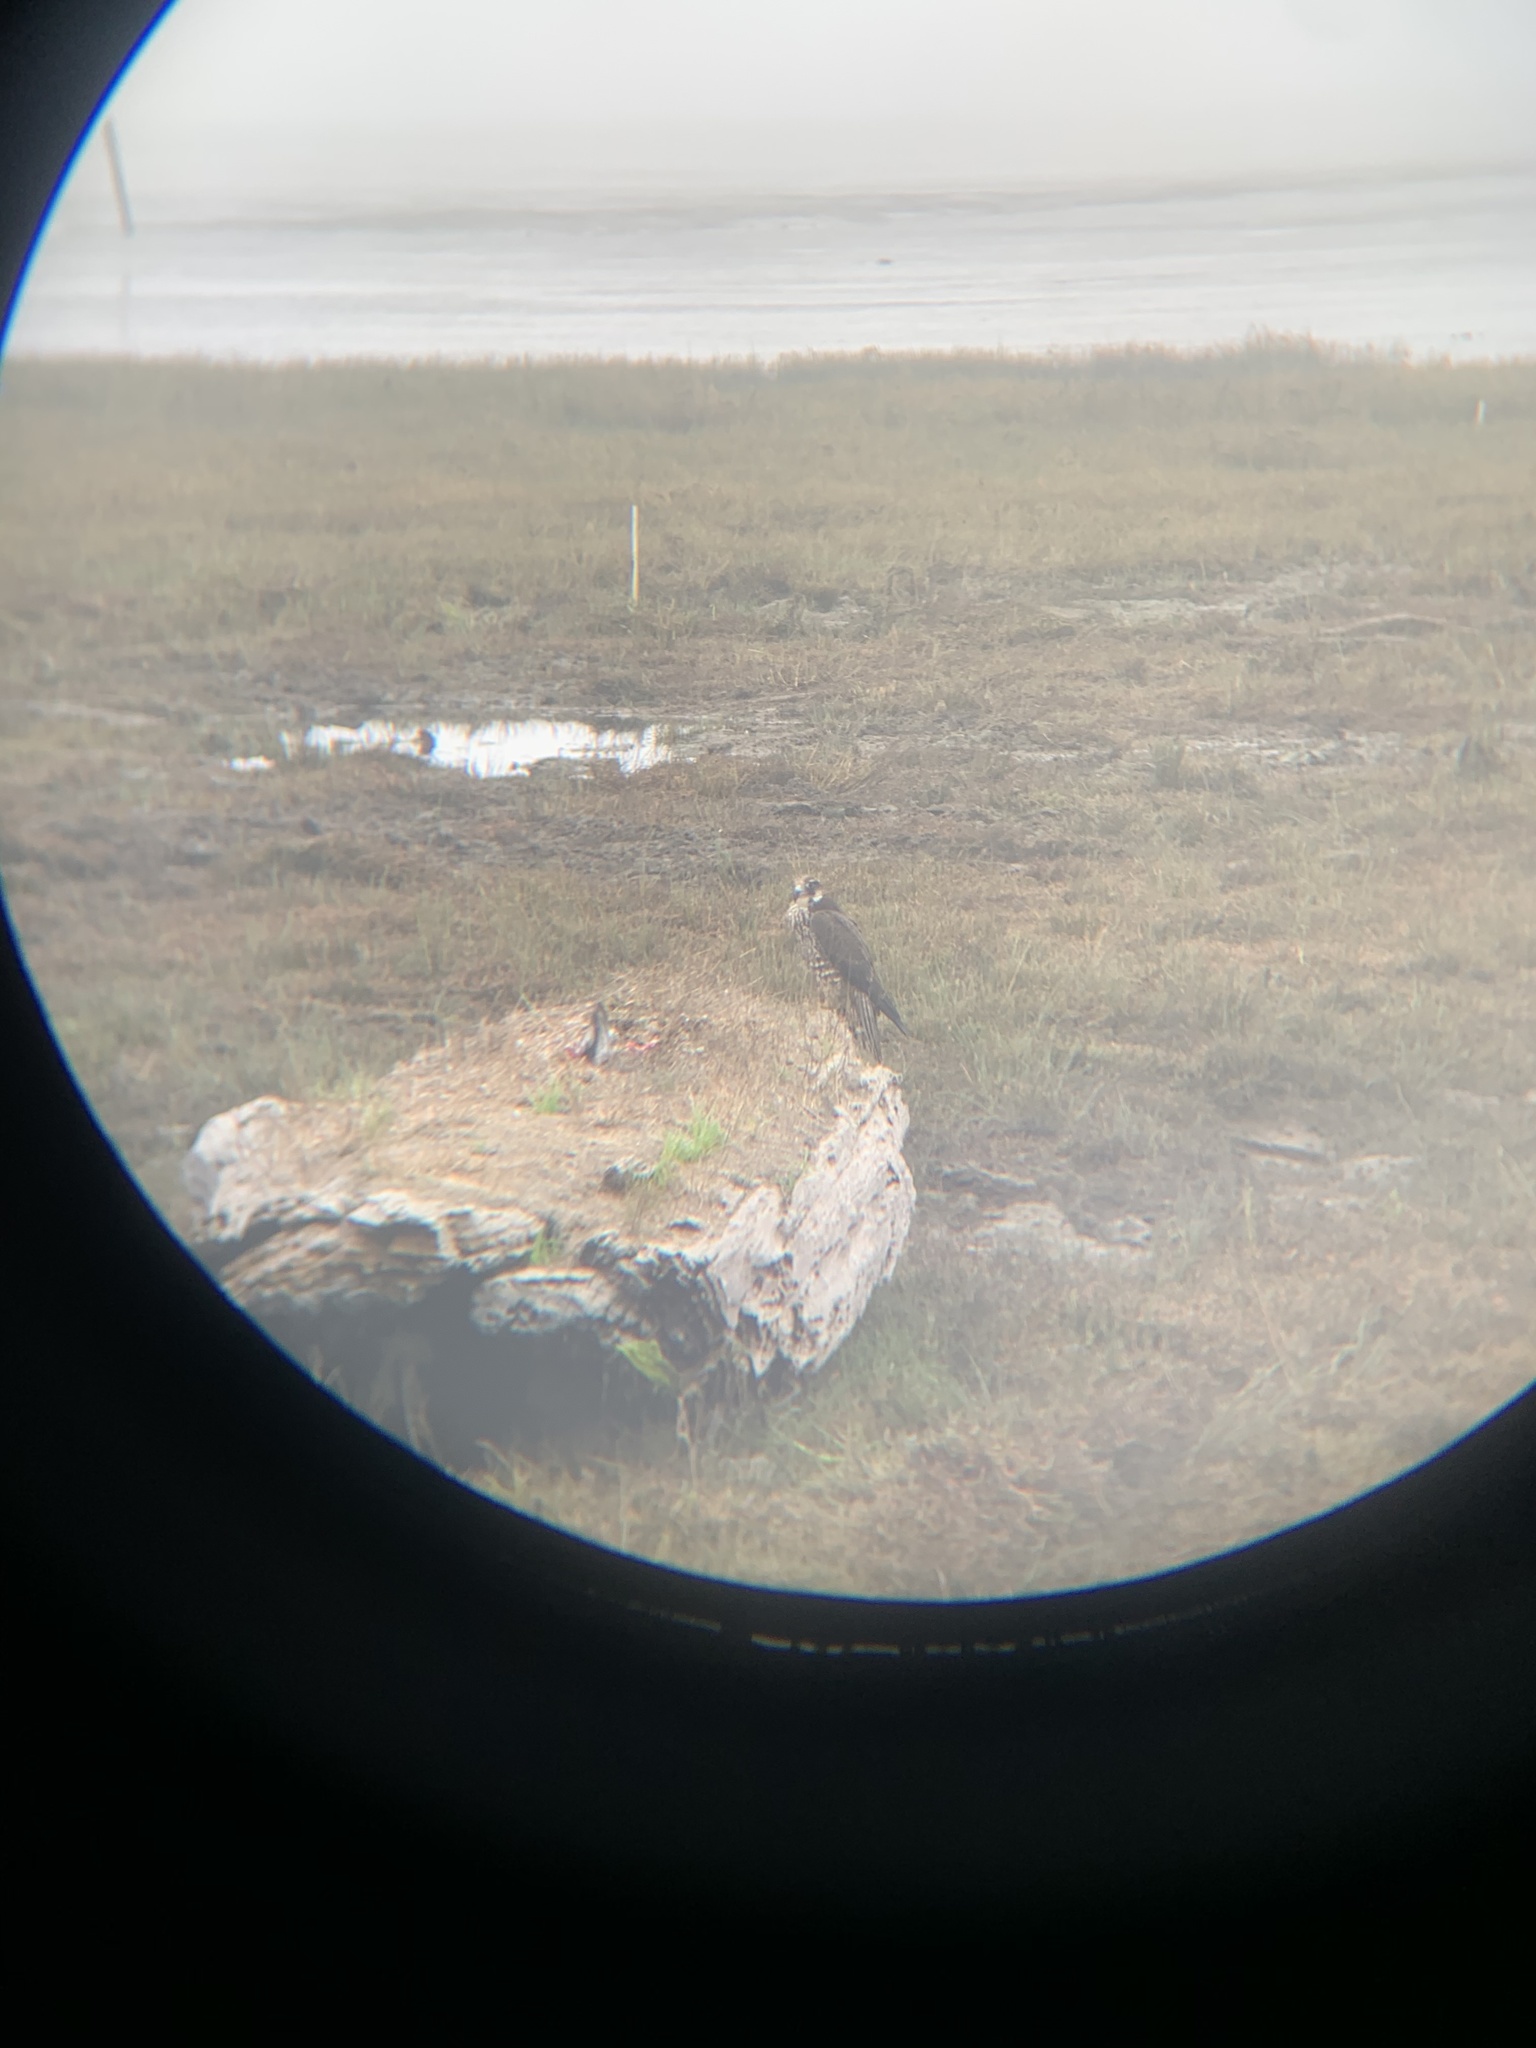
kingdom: Animalia
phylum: Chordata
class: Aves
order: Falconiformes
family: Falconidae
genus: Falco
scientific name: Falco peregrinus
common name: Peregrine falcon
